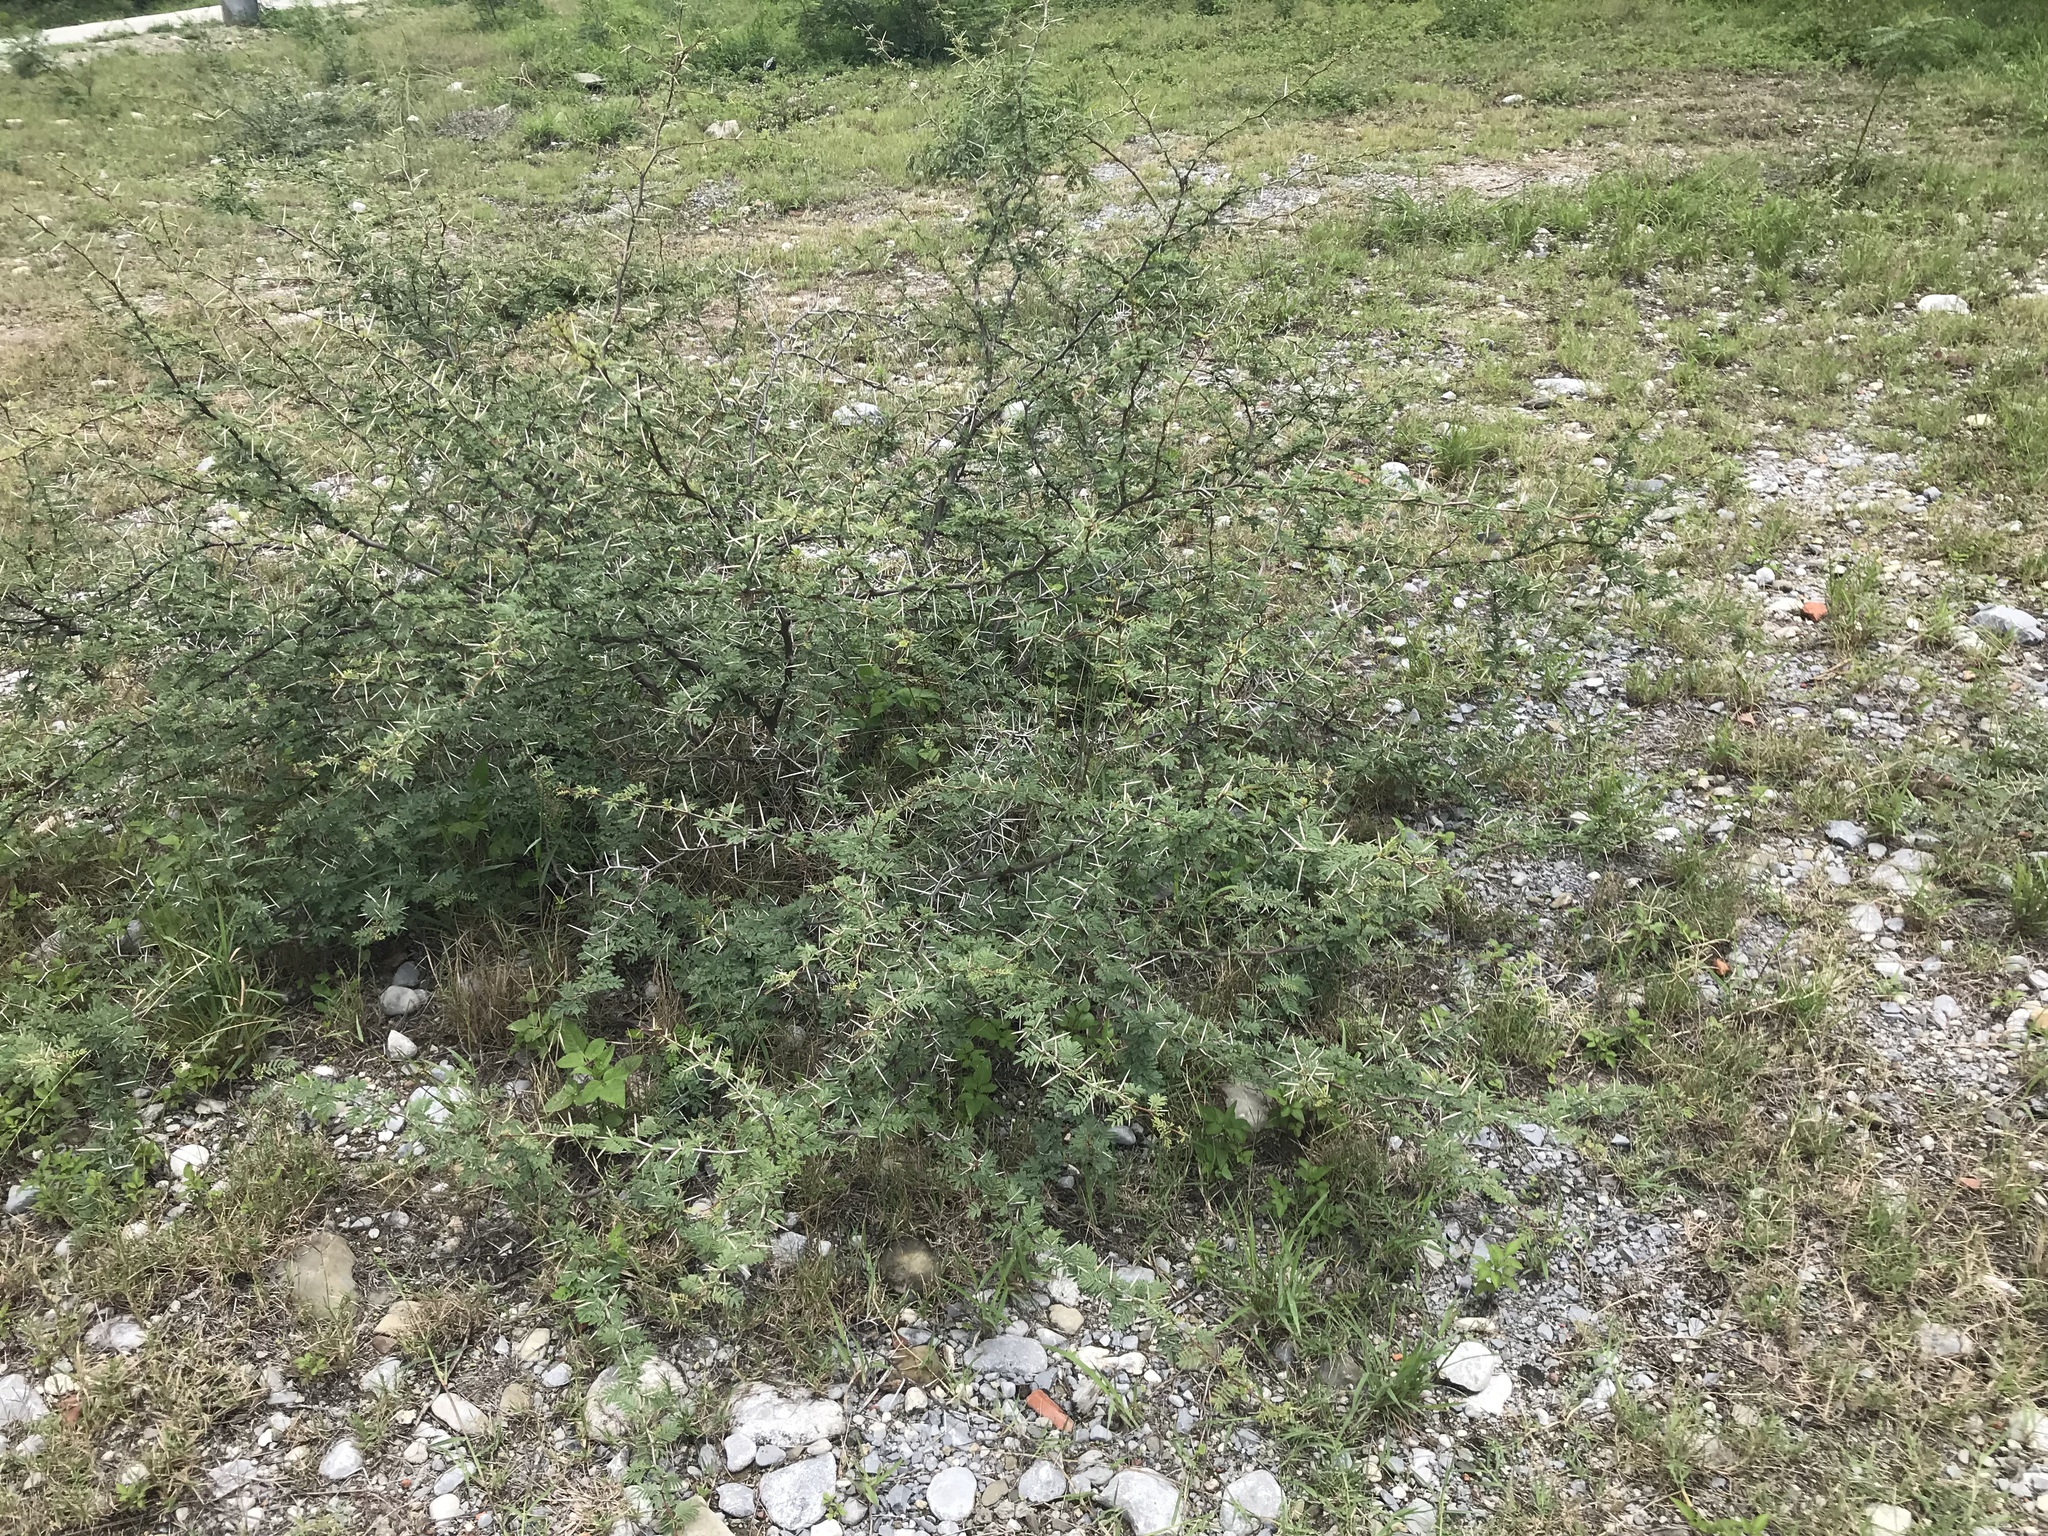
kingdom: Plantae
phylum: Tracheophyta
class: Magnoliopsida
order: Fabales
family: Fabaceae
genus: Vachellia
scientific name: Vachellia farnesiana
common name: Sweet acacia
